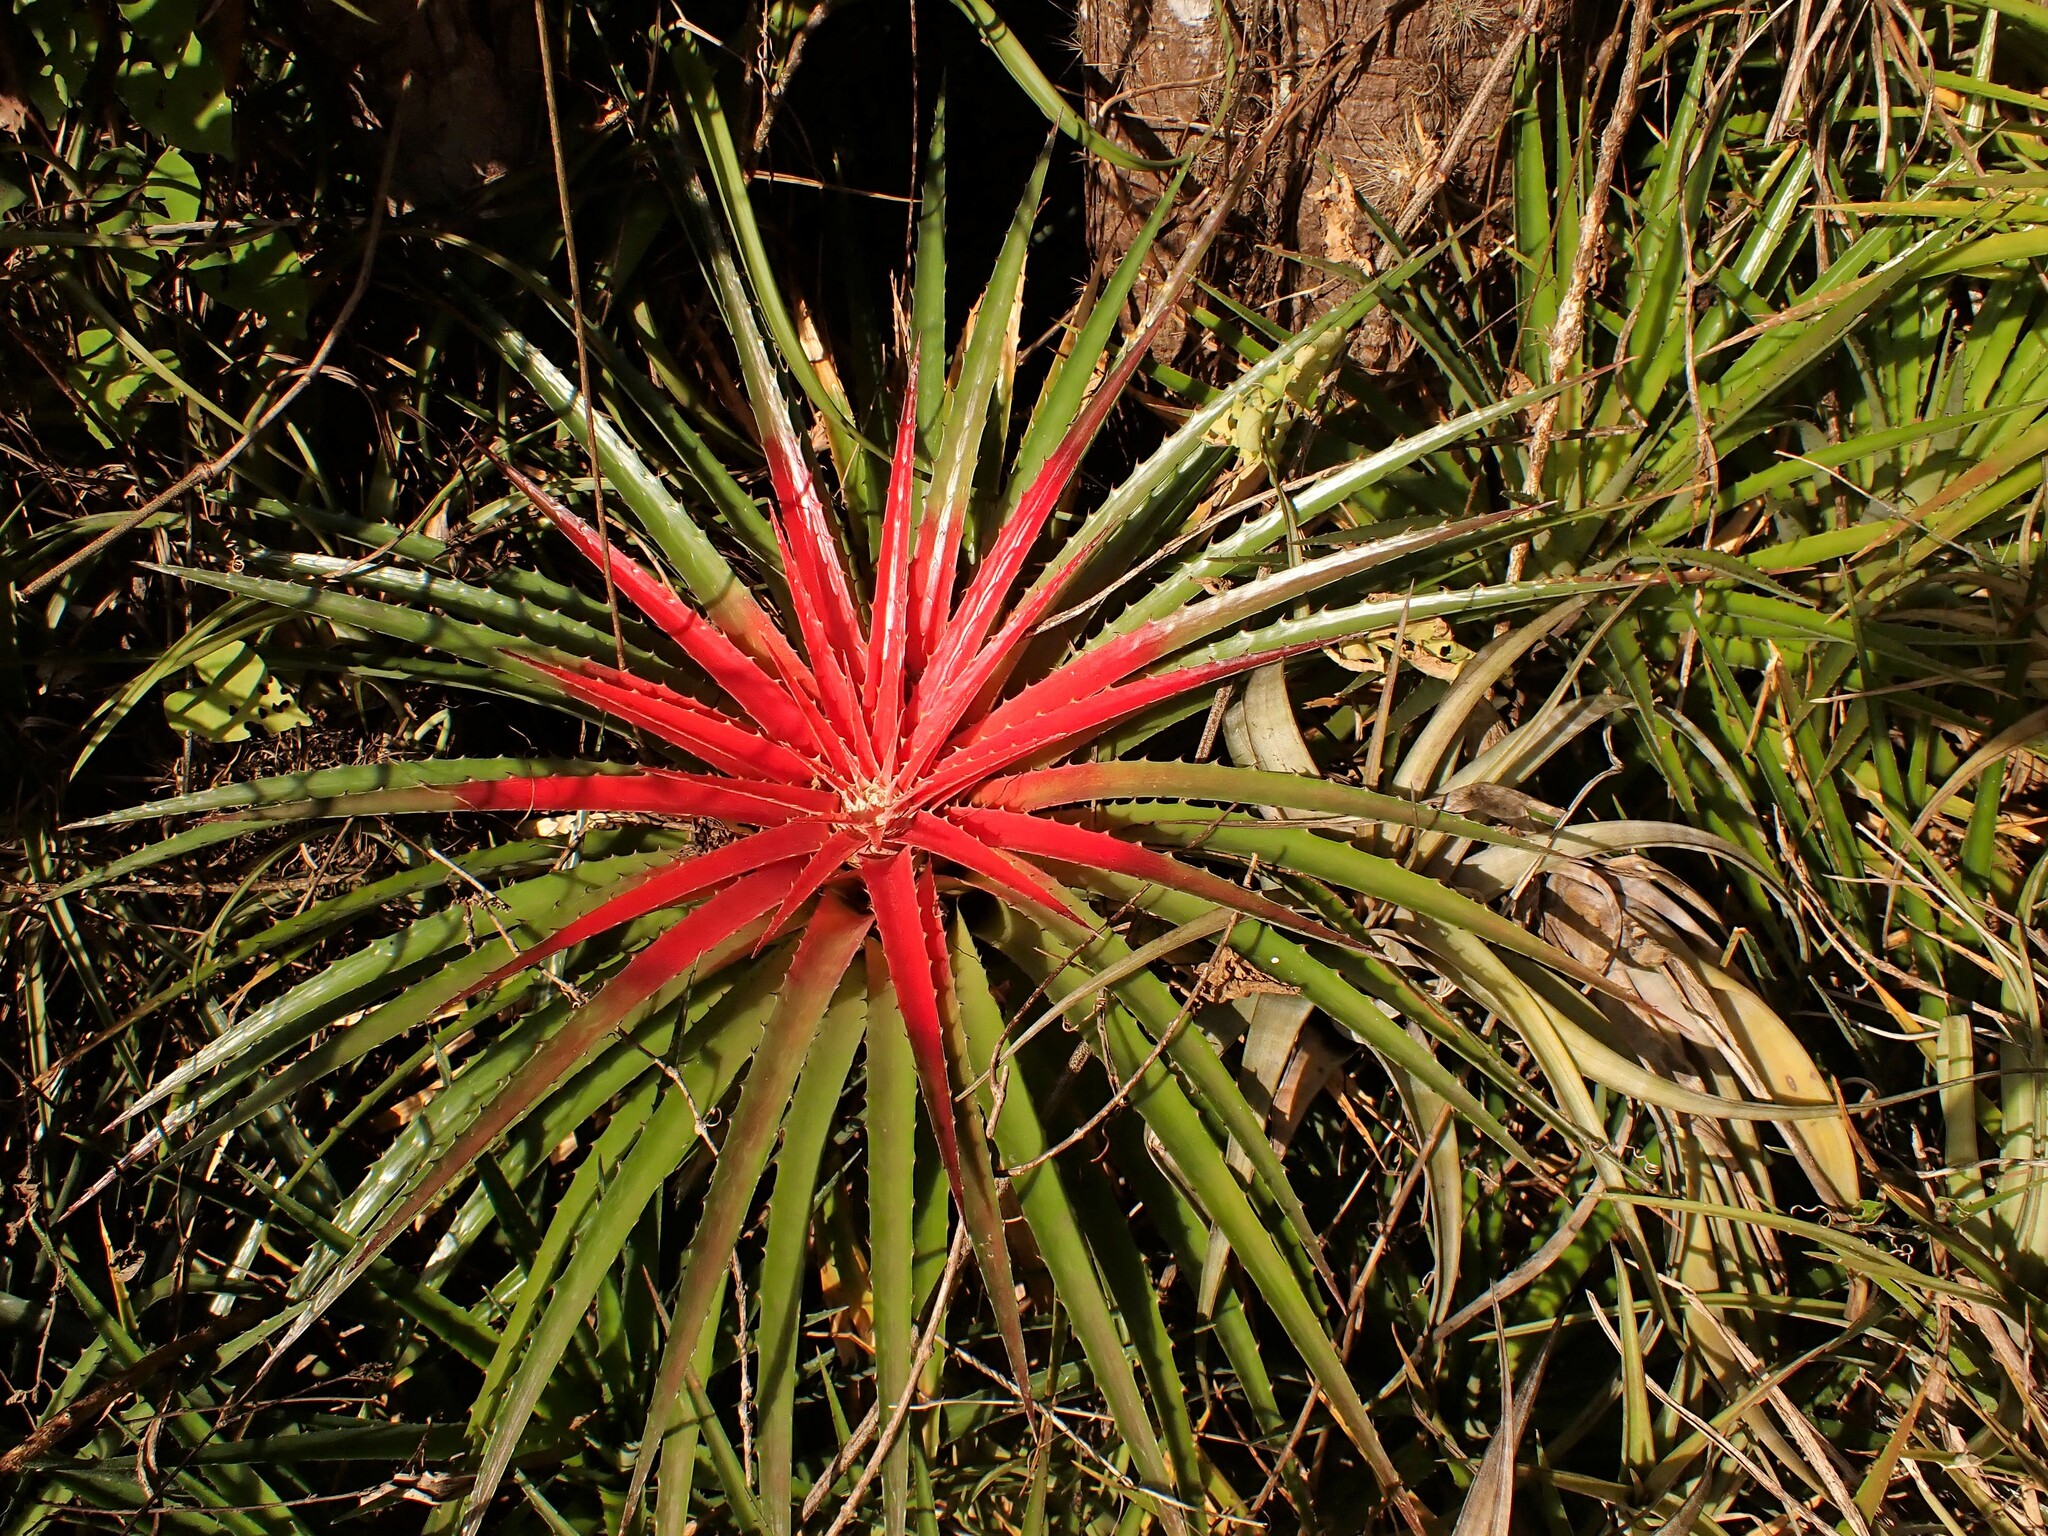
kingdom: Plantae
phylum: Tracheophyta
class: Liliopsida
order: Poales
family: Bromeliaceae
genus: Bromelia
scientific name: Bromelia humilis
